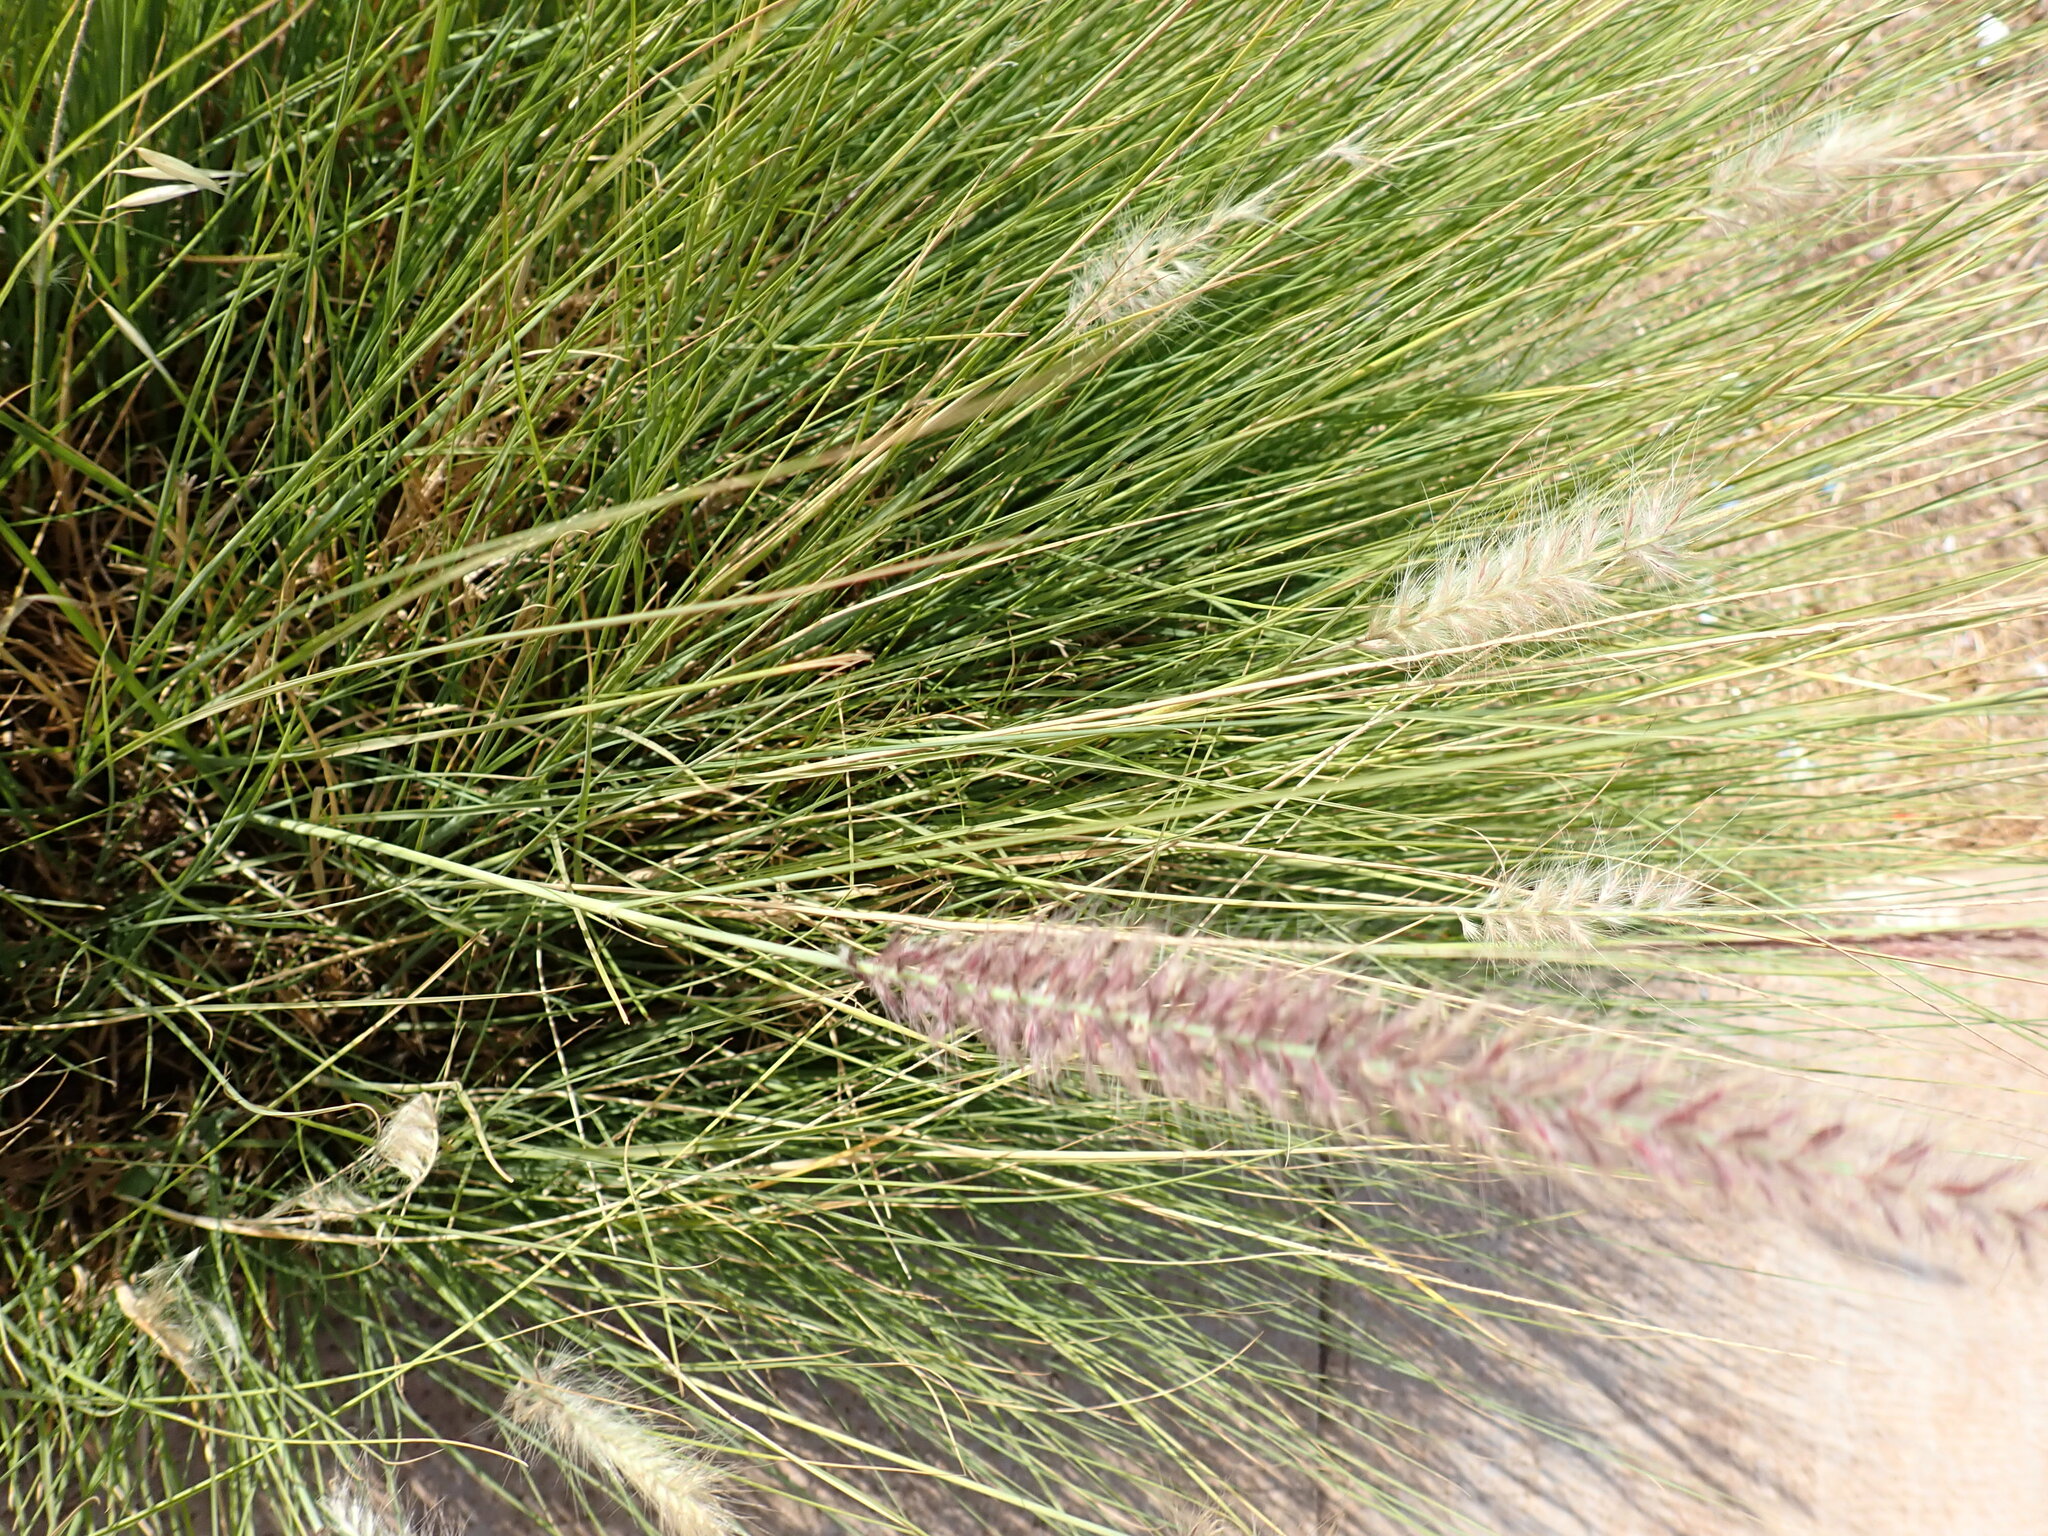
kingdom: Plantae
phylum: Tracheophyta
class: Liliopsida
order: Poales
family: Poaceae
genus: Cenchrus
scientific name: Cenchrus setaceus
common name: Crimson fountaingrass
